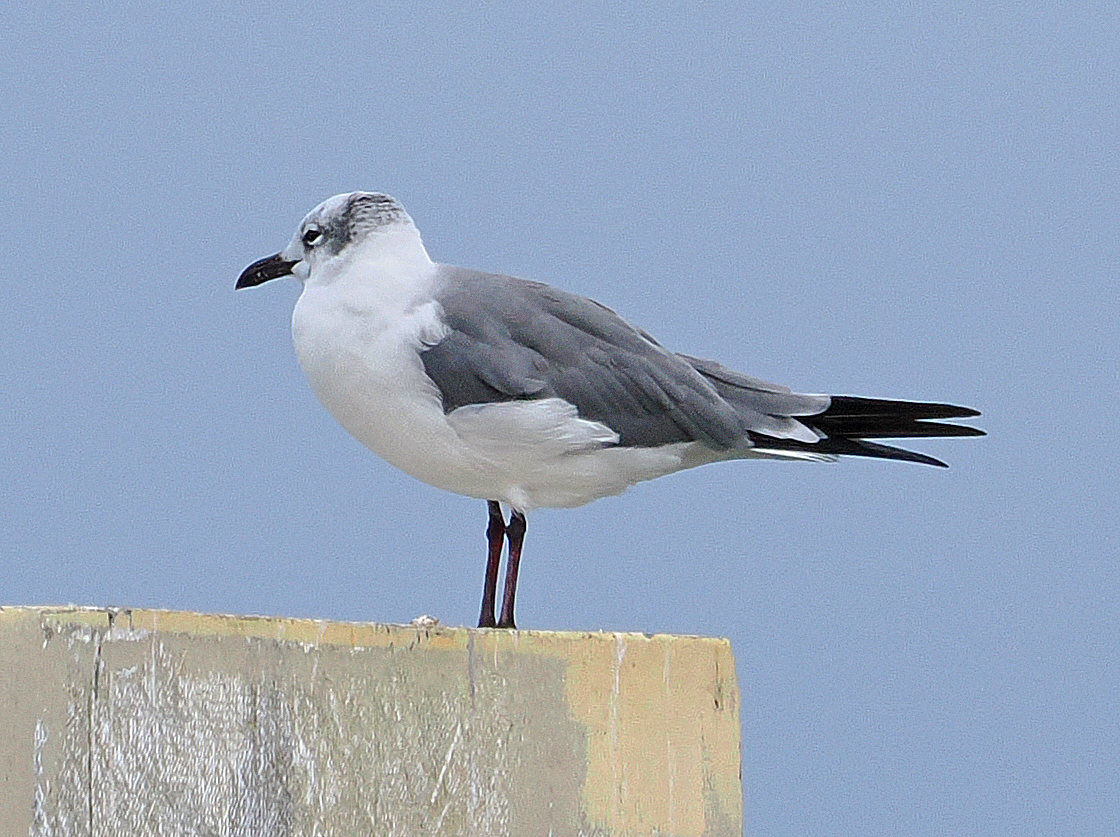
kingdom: Animalia
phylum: Chordata
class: Aves
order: Charadriiformes
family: Laridae
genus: Leucophaeus
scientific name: Leucophaeus atricilla
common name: Laughing gull
